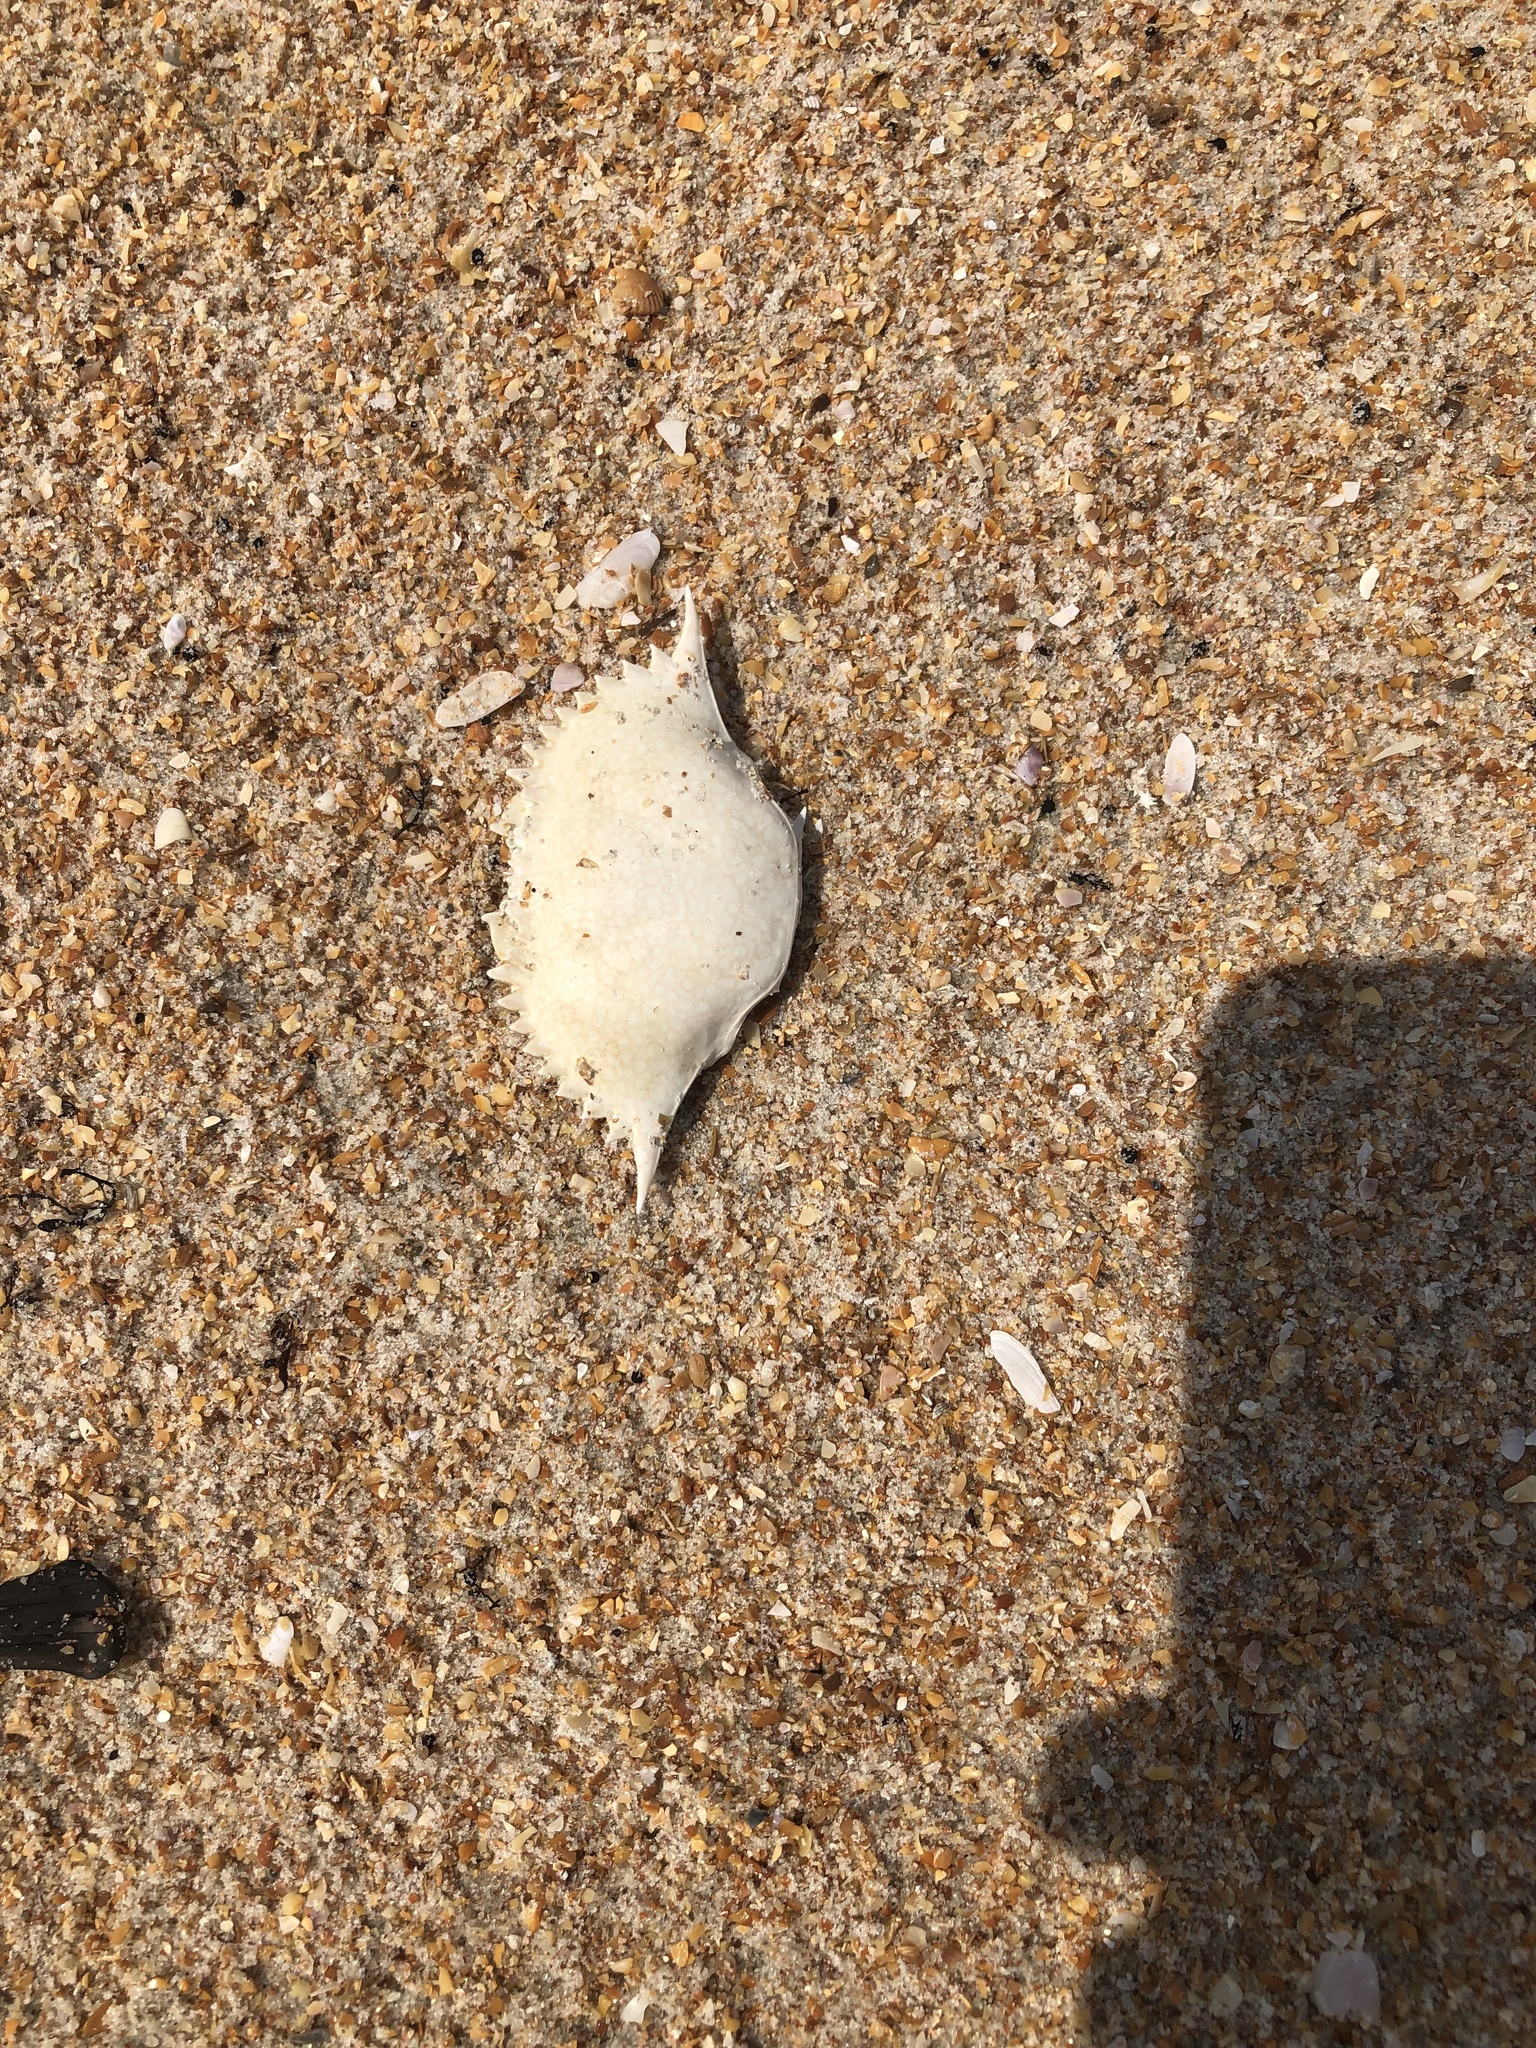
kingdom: Animalia
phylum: Arthropoda
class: Malacostraca
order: Decapoda
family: Portunidae
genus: Arenaeus
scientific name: Arenaeus cribrarius
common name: Speckled crab
